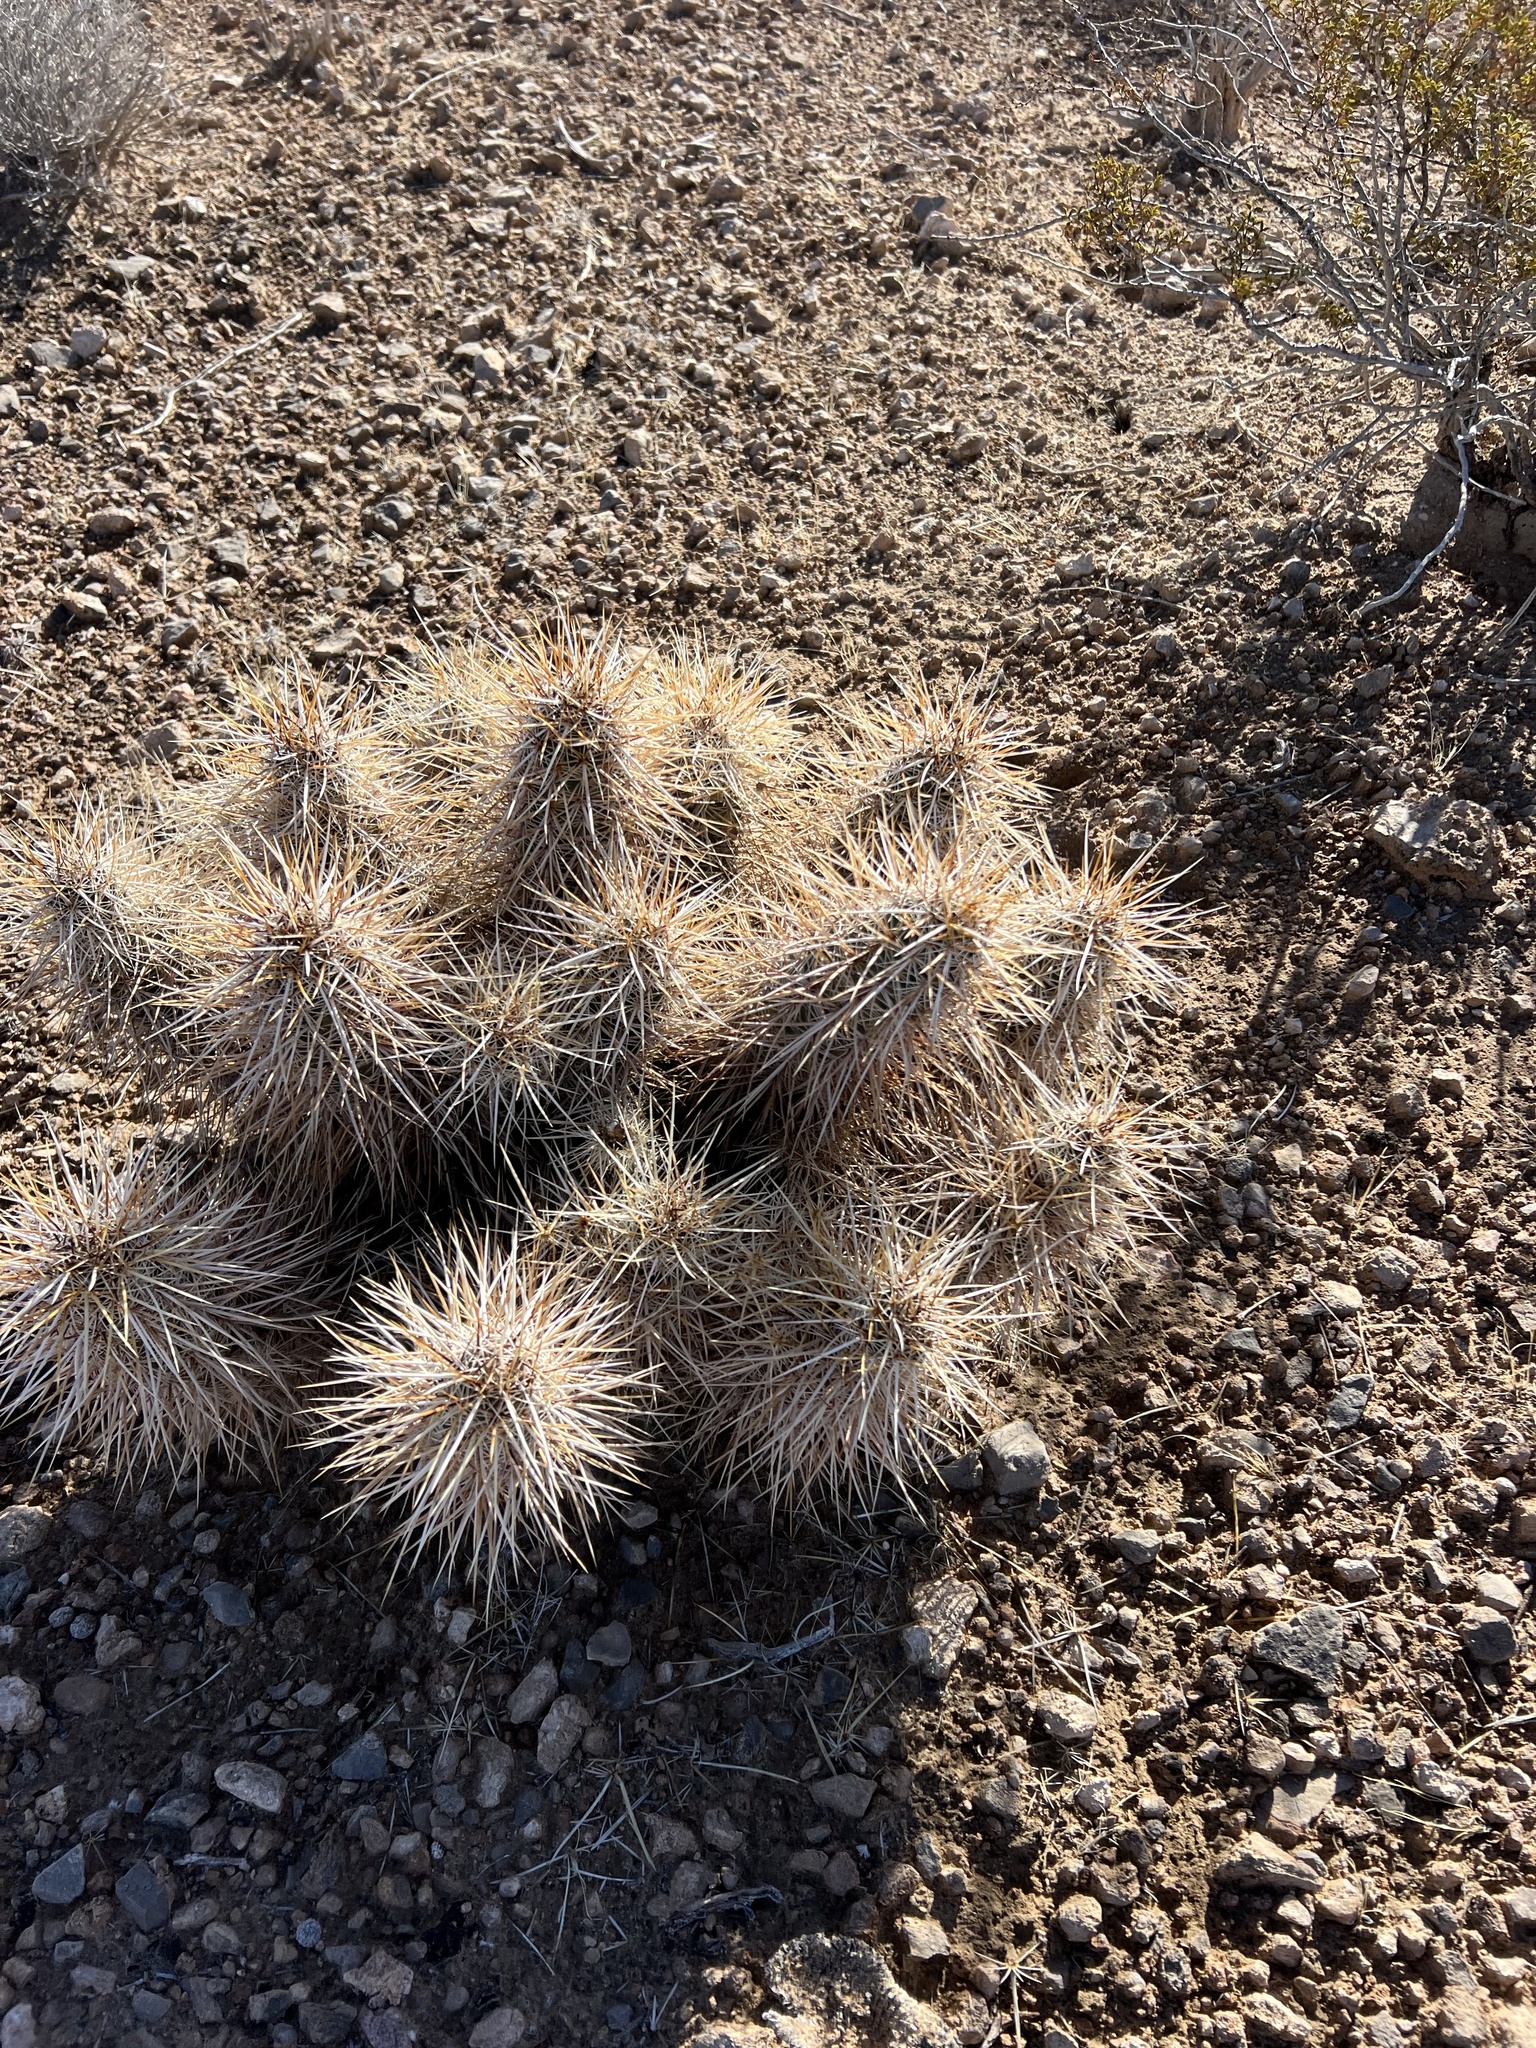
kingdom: Plantae
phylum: Tracheophyta
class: Magnoliopsida
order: Caryophyllales
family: Cactaceae
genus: Echinocereus
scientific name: Echinocereus engelmannii
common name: Engelmann's hedgehog cactus
